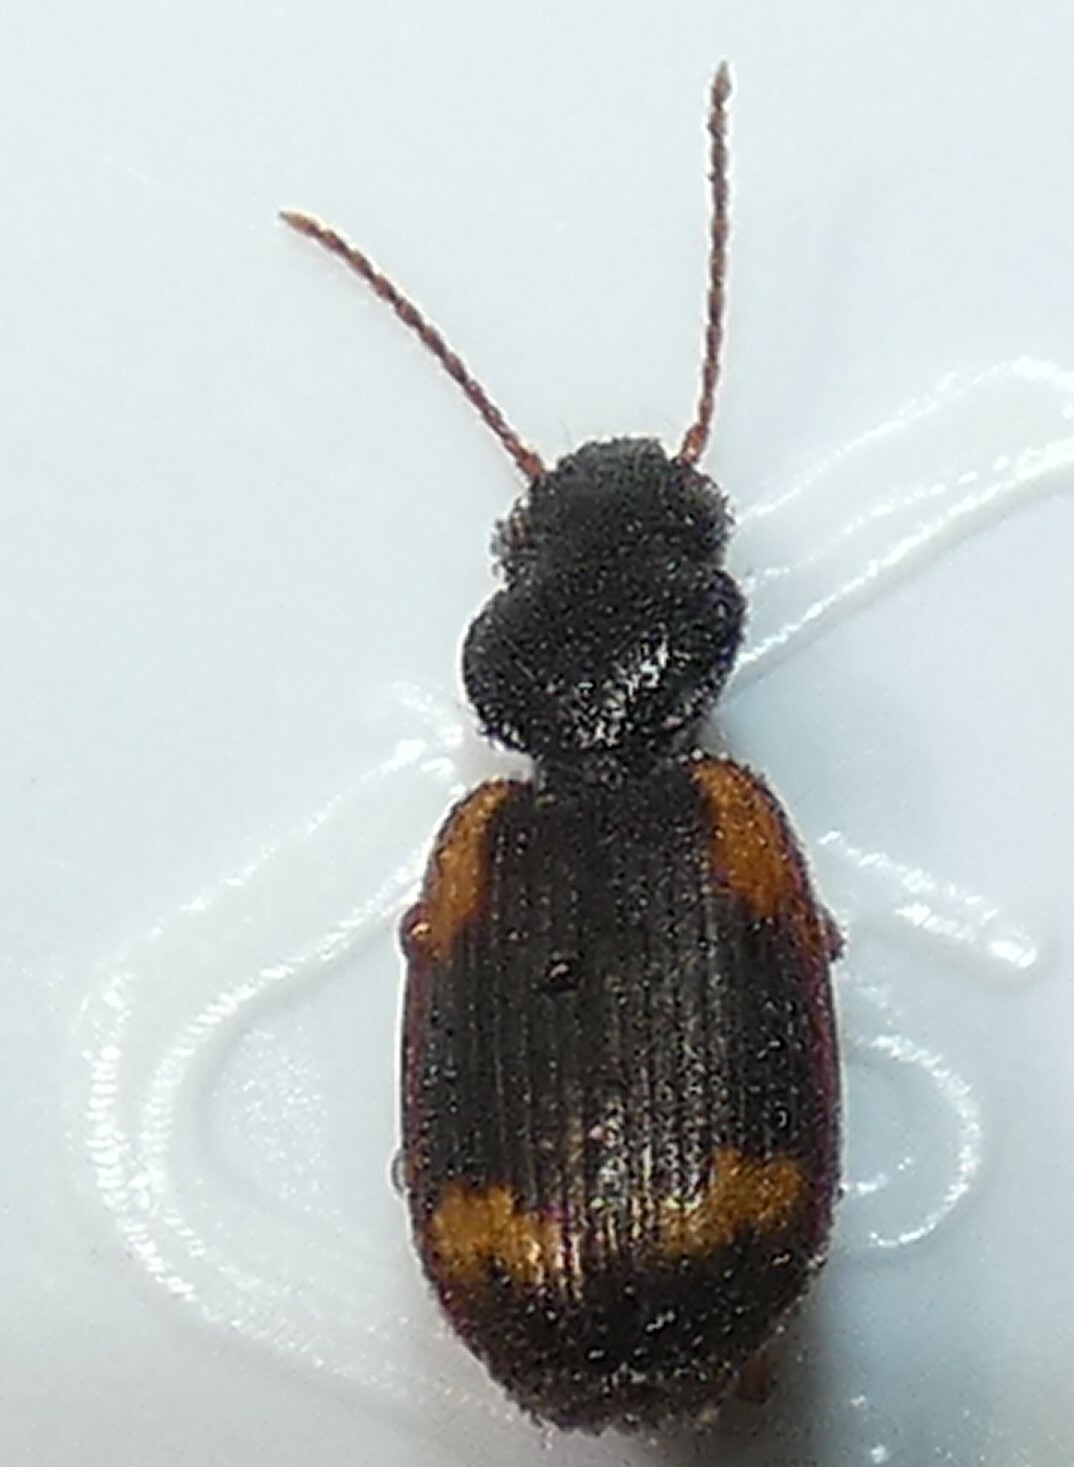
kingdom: Animalia
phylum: Arthropoda
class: Insecta
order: Coleoptera
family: Carabidae
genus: Apenes
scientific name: Apenes sinuata
